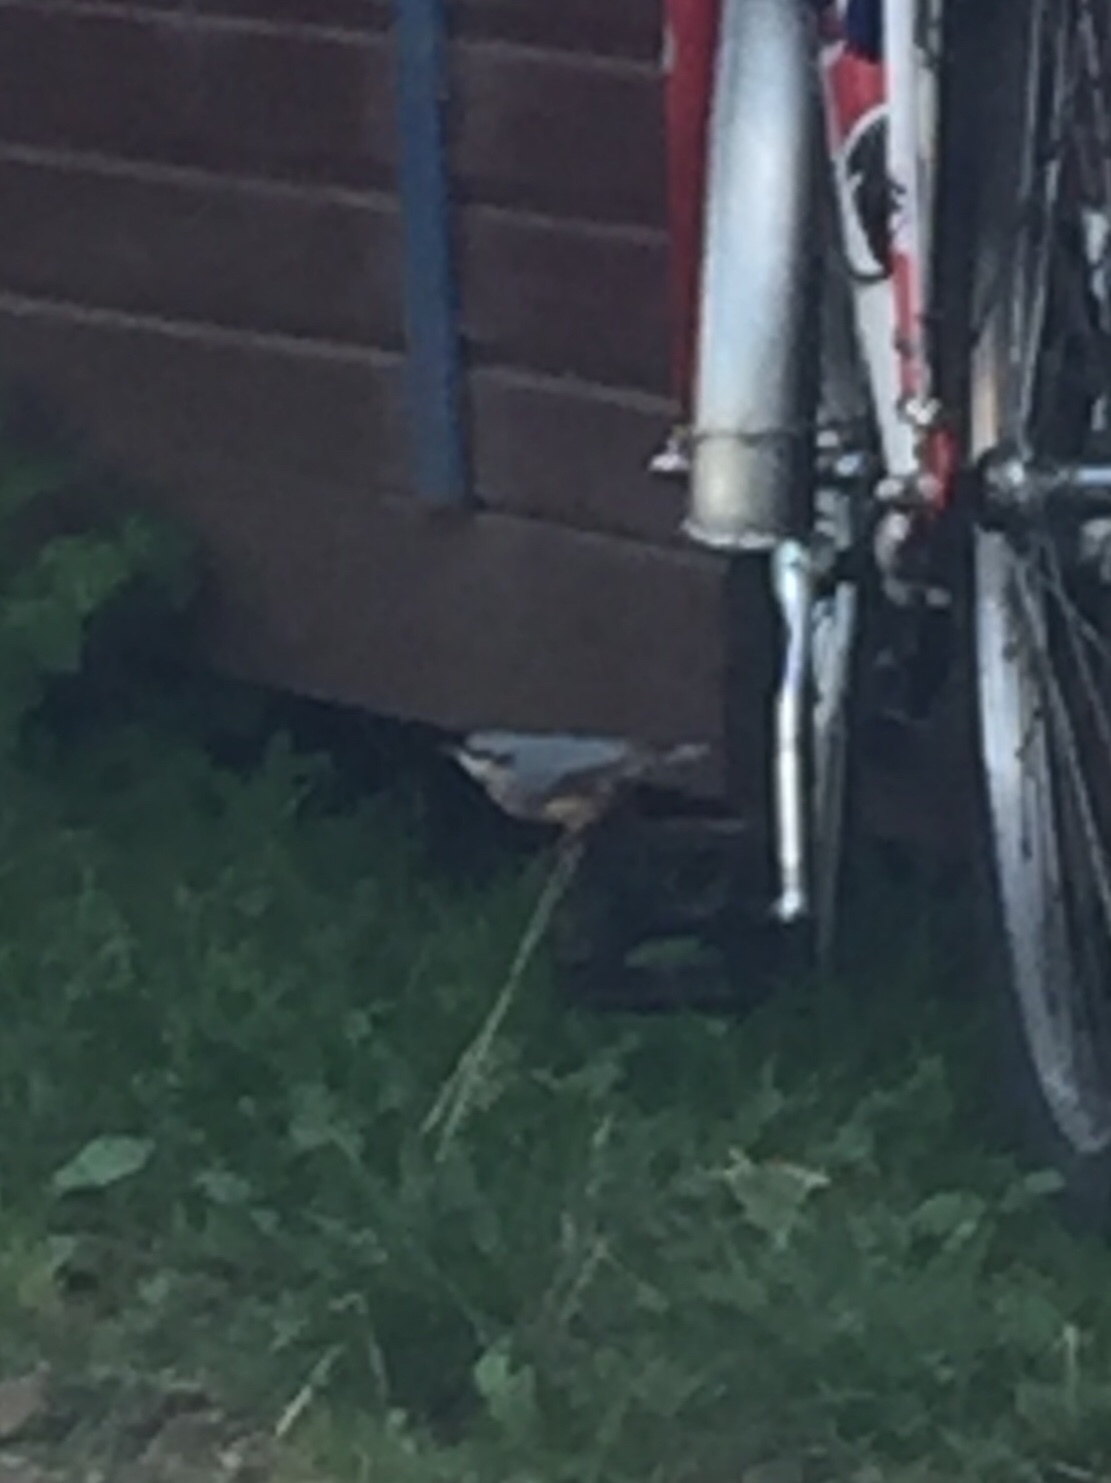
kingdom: Animalia
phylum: Chordata
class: Aves
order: Passeriformes
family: Sittidae
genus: Sitta
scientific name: Sitta europaea
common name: Eurasian nuthatch
